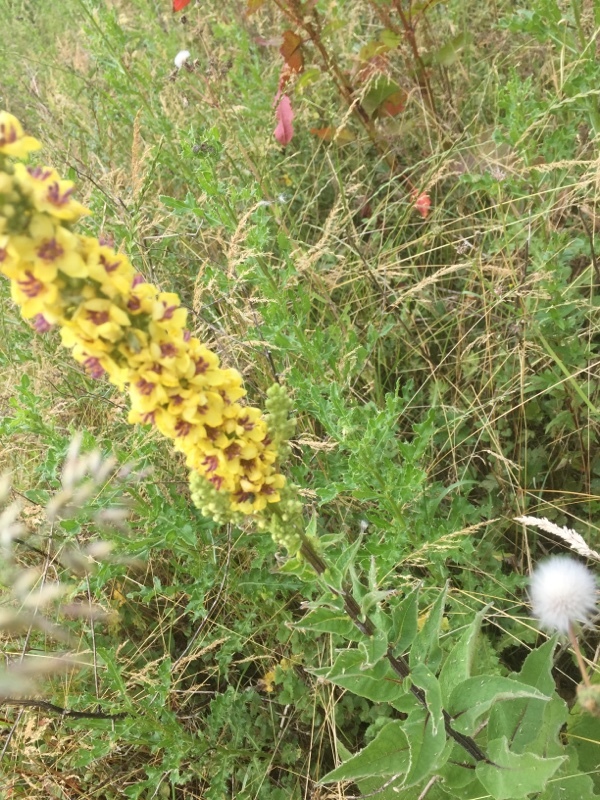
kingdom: Plantae
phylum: Tracheophyta
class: Magnoliopsida
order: Lamiales
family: Scrophulariaceae
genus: Verbascum
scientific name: Verbascum nigrum
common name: Dark mullein
